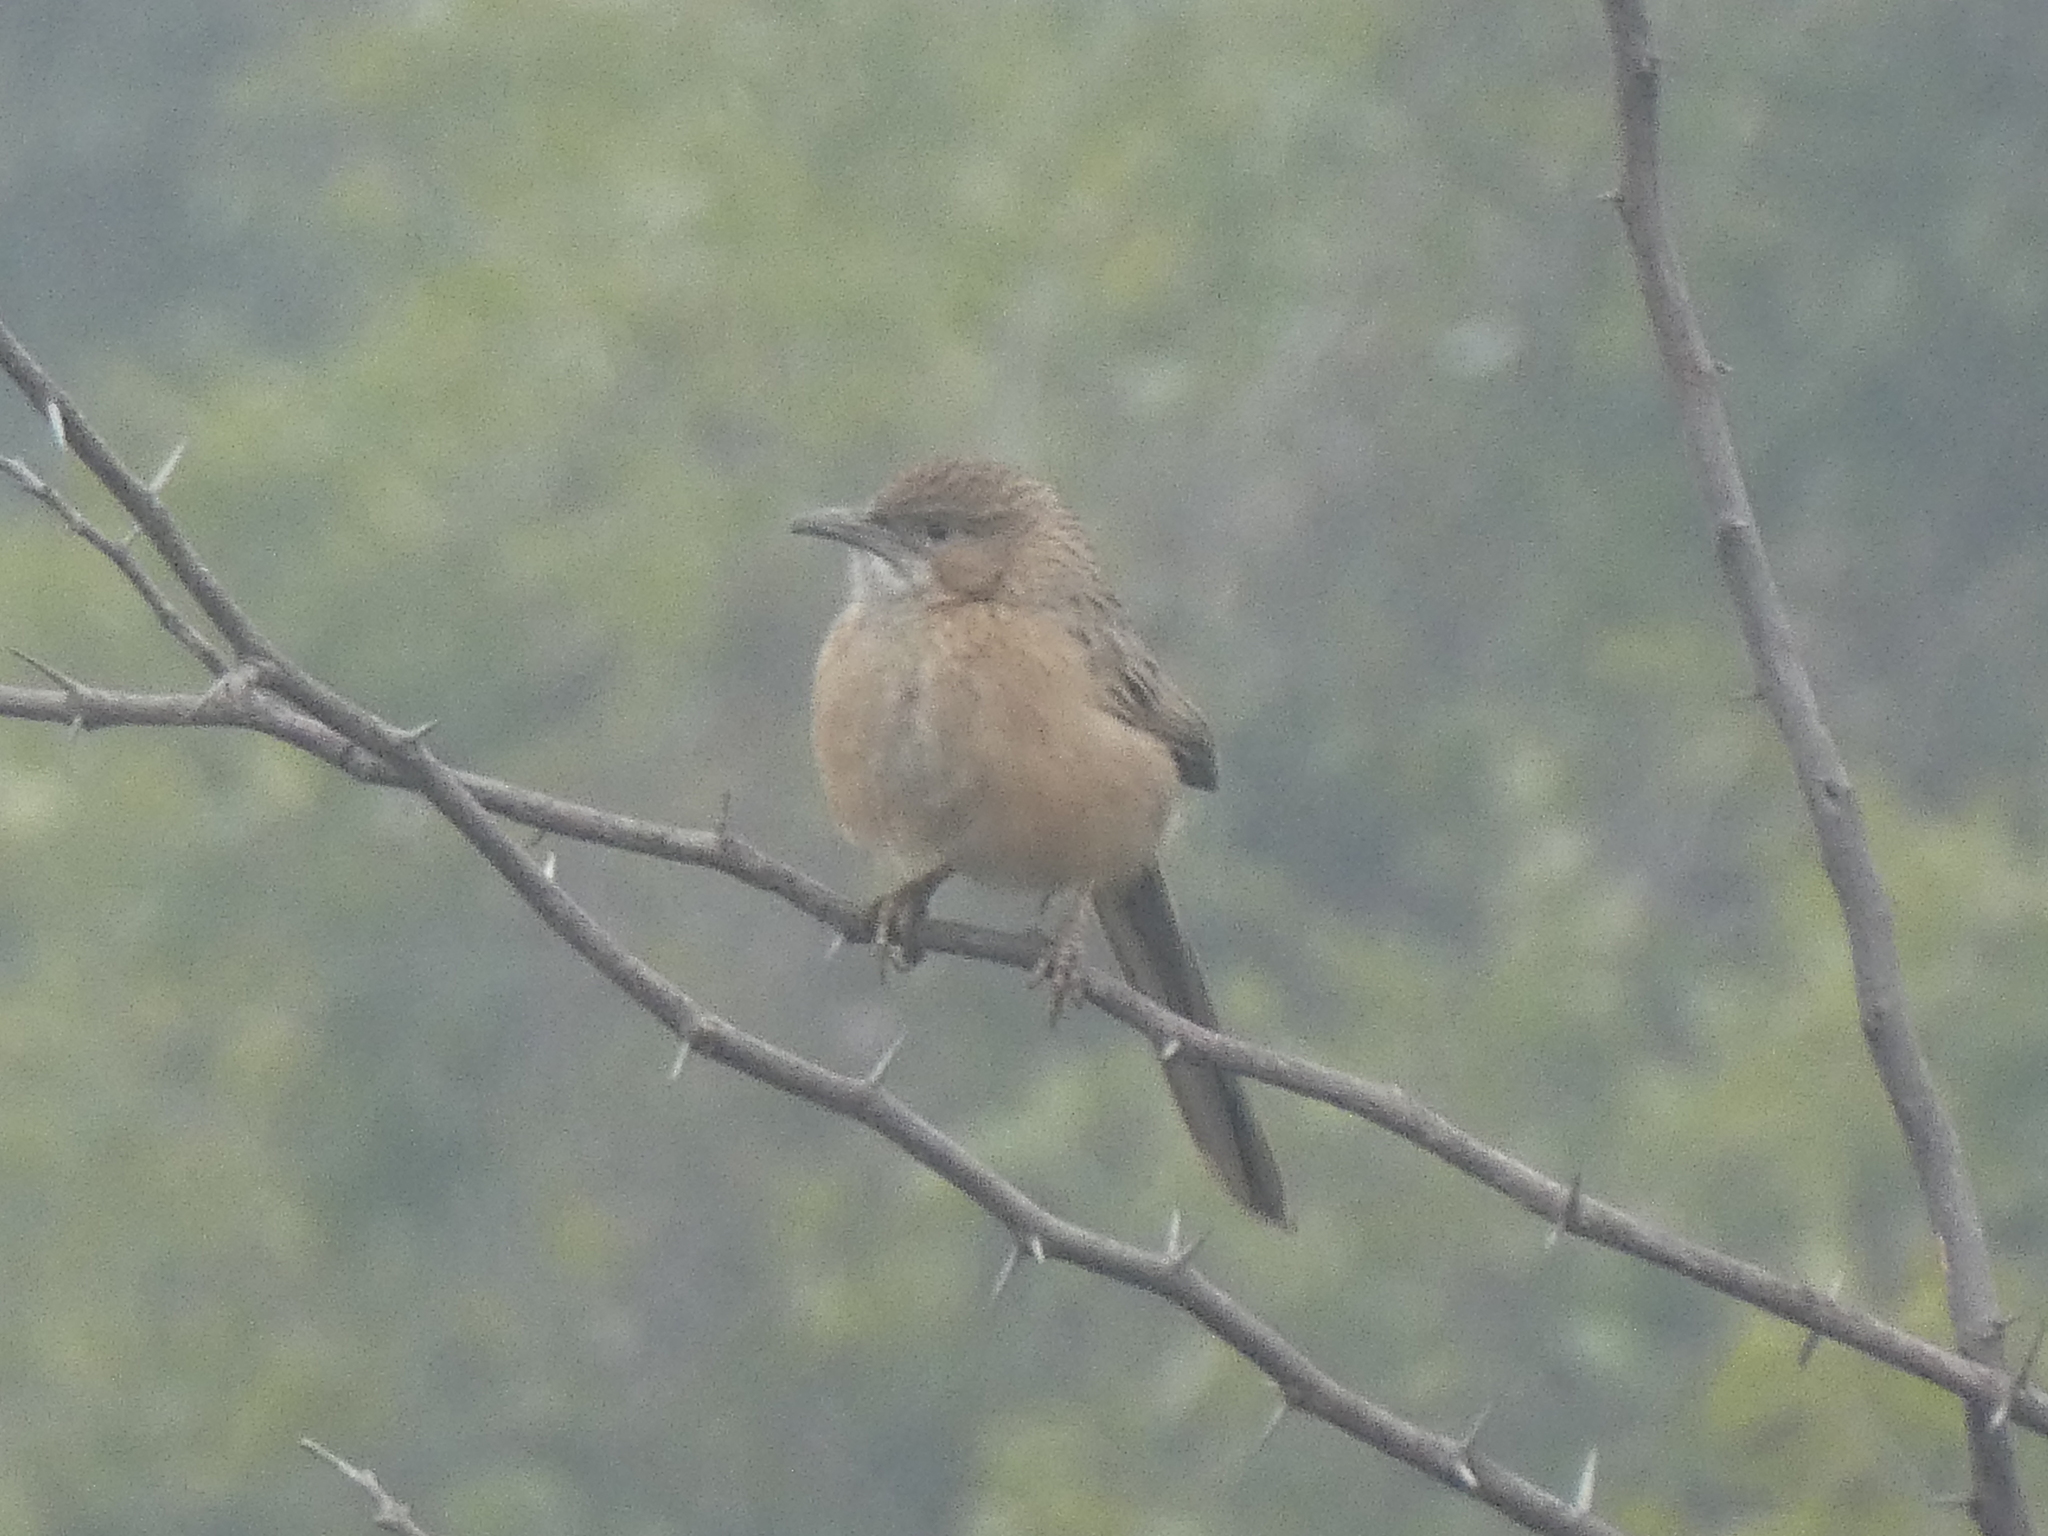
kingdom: Animalia
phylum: Chordata
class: Aves
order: Passeriformes
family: Leiothrichidae
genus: Turdoides
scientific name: Turdoides caudata
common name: Common babbler
